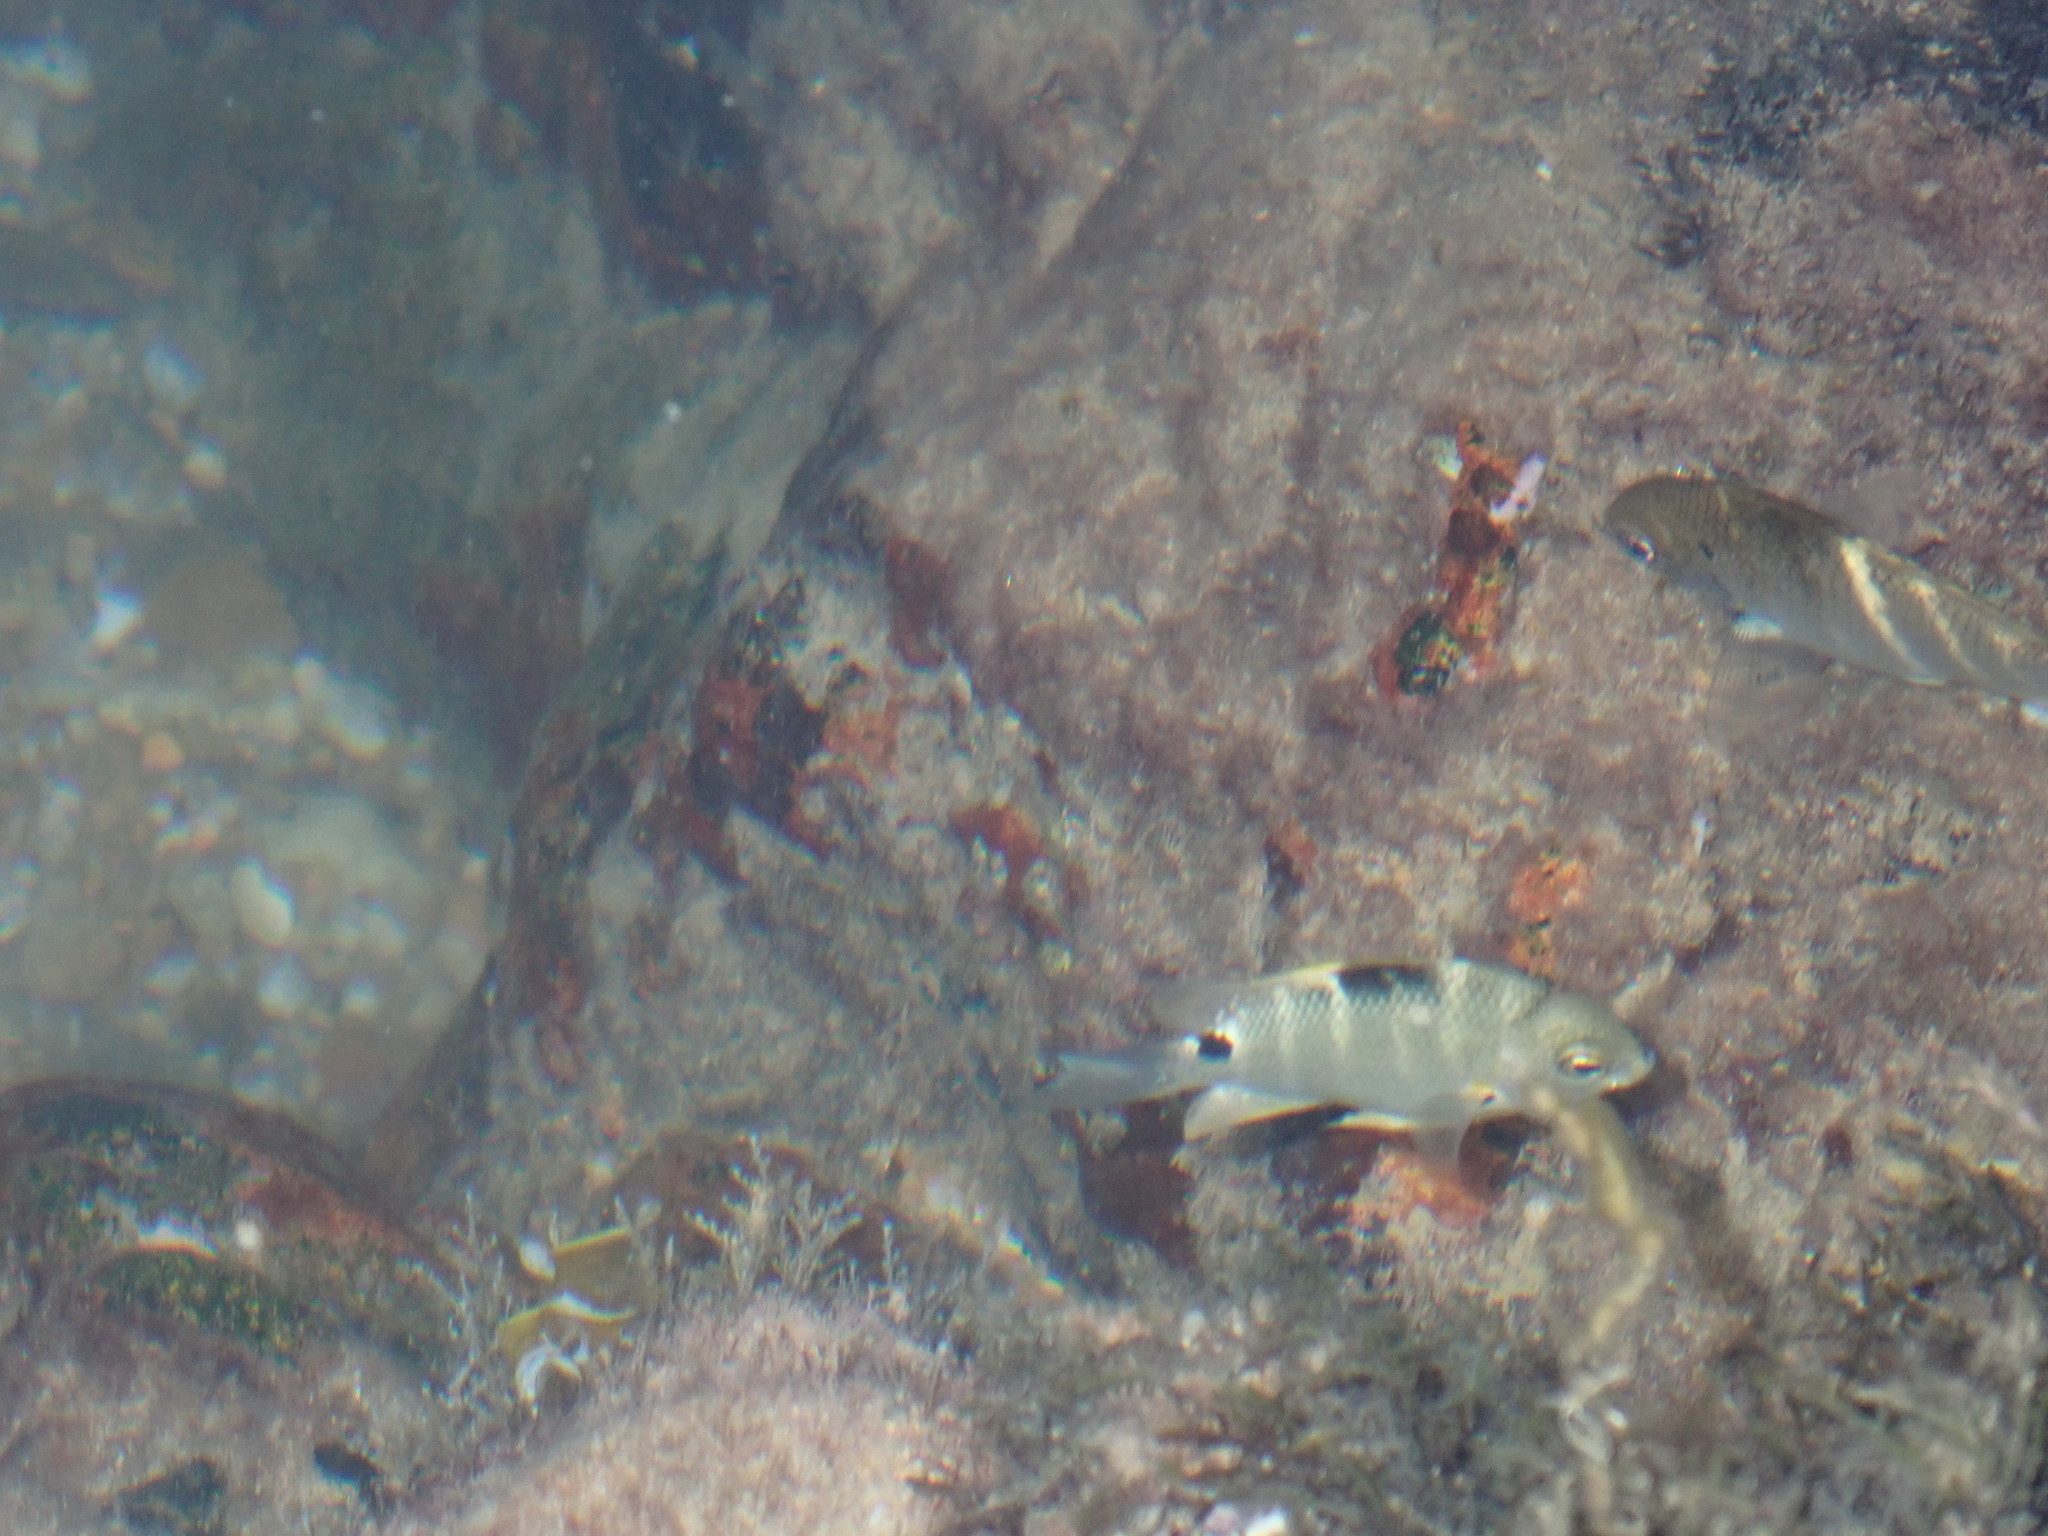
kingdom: Animalia
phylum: Chordata
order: Perciformes
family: Pomacentridae
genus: Abudefduf
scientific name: Abudefduf sordidus
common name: Blackspot sergeant
